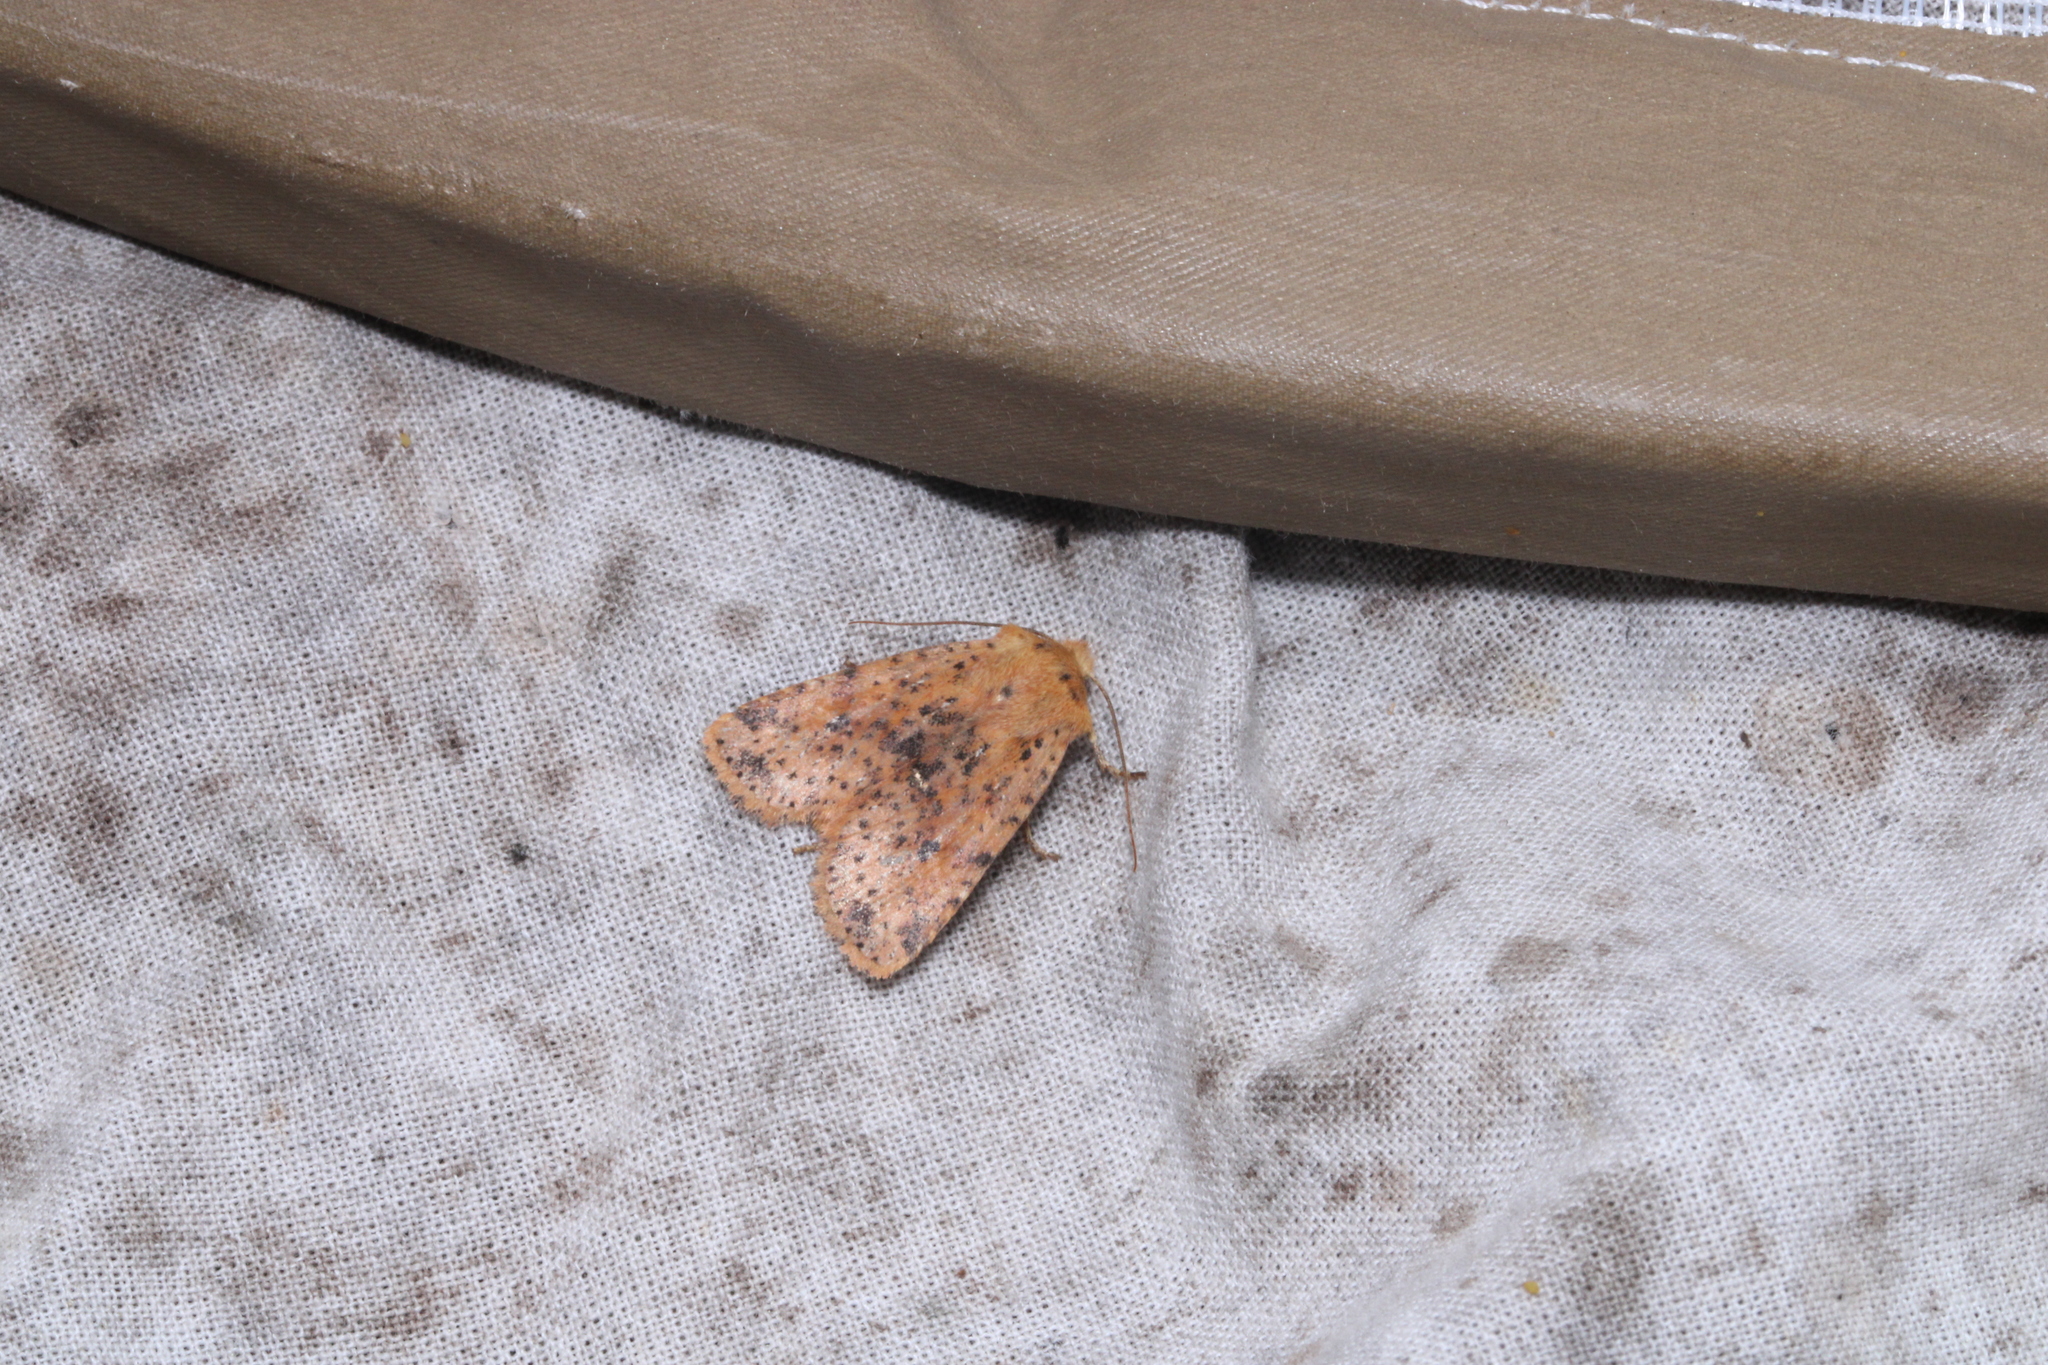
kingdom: Animalia
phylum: Arthropoda
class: Insecta
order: Lepidoptera
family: Noctuidae
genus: Conistra
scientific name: Conistra rubiginea
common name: Dotted chestnut
